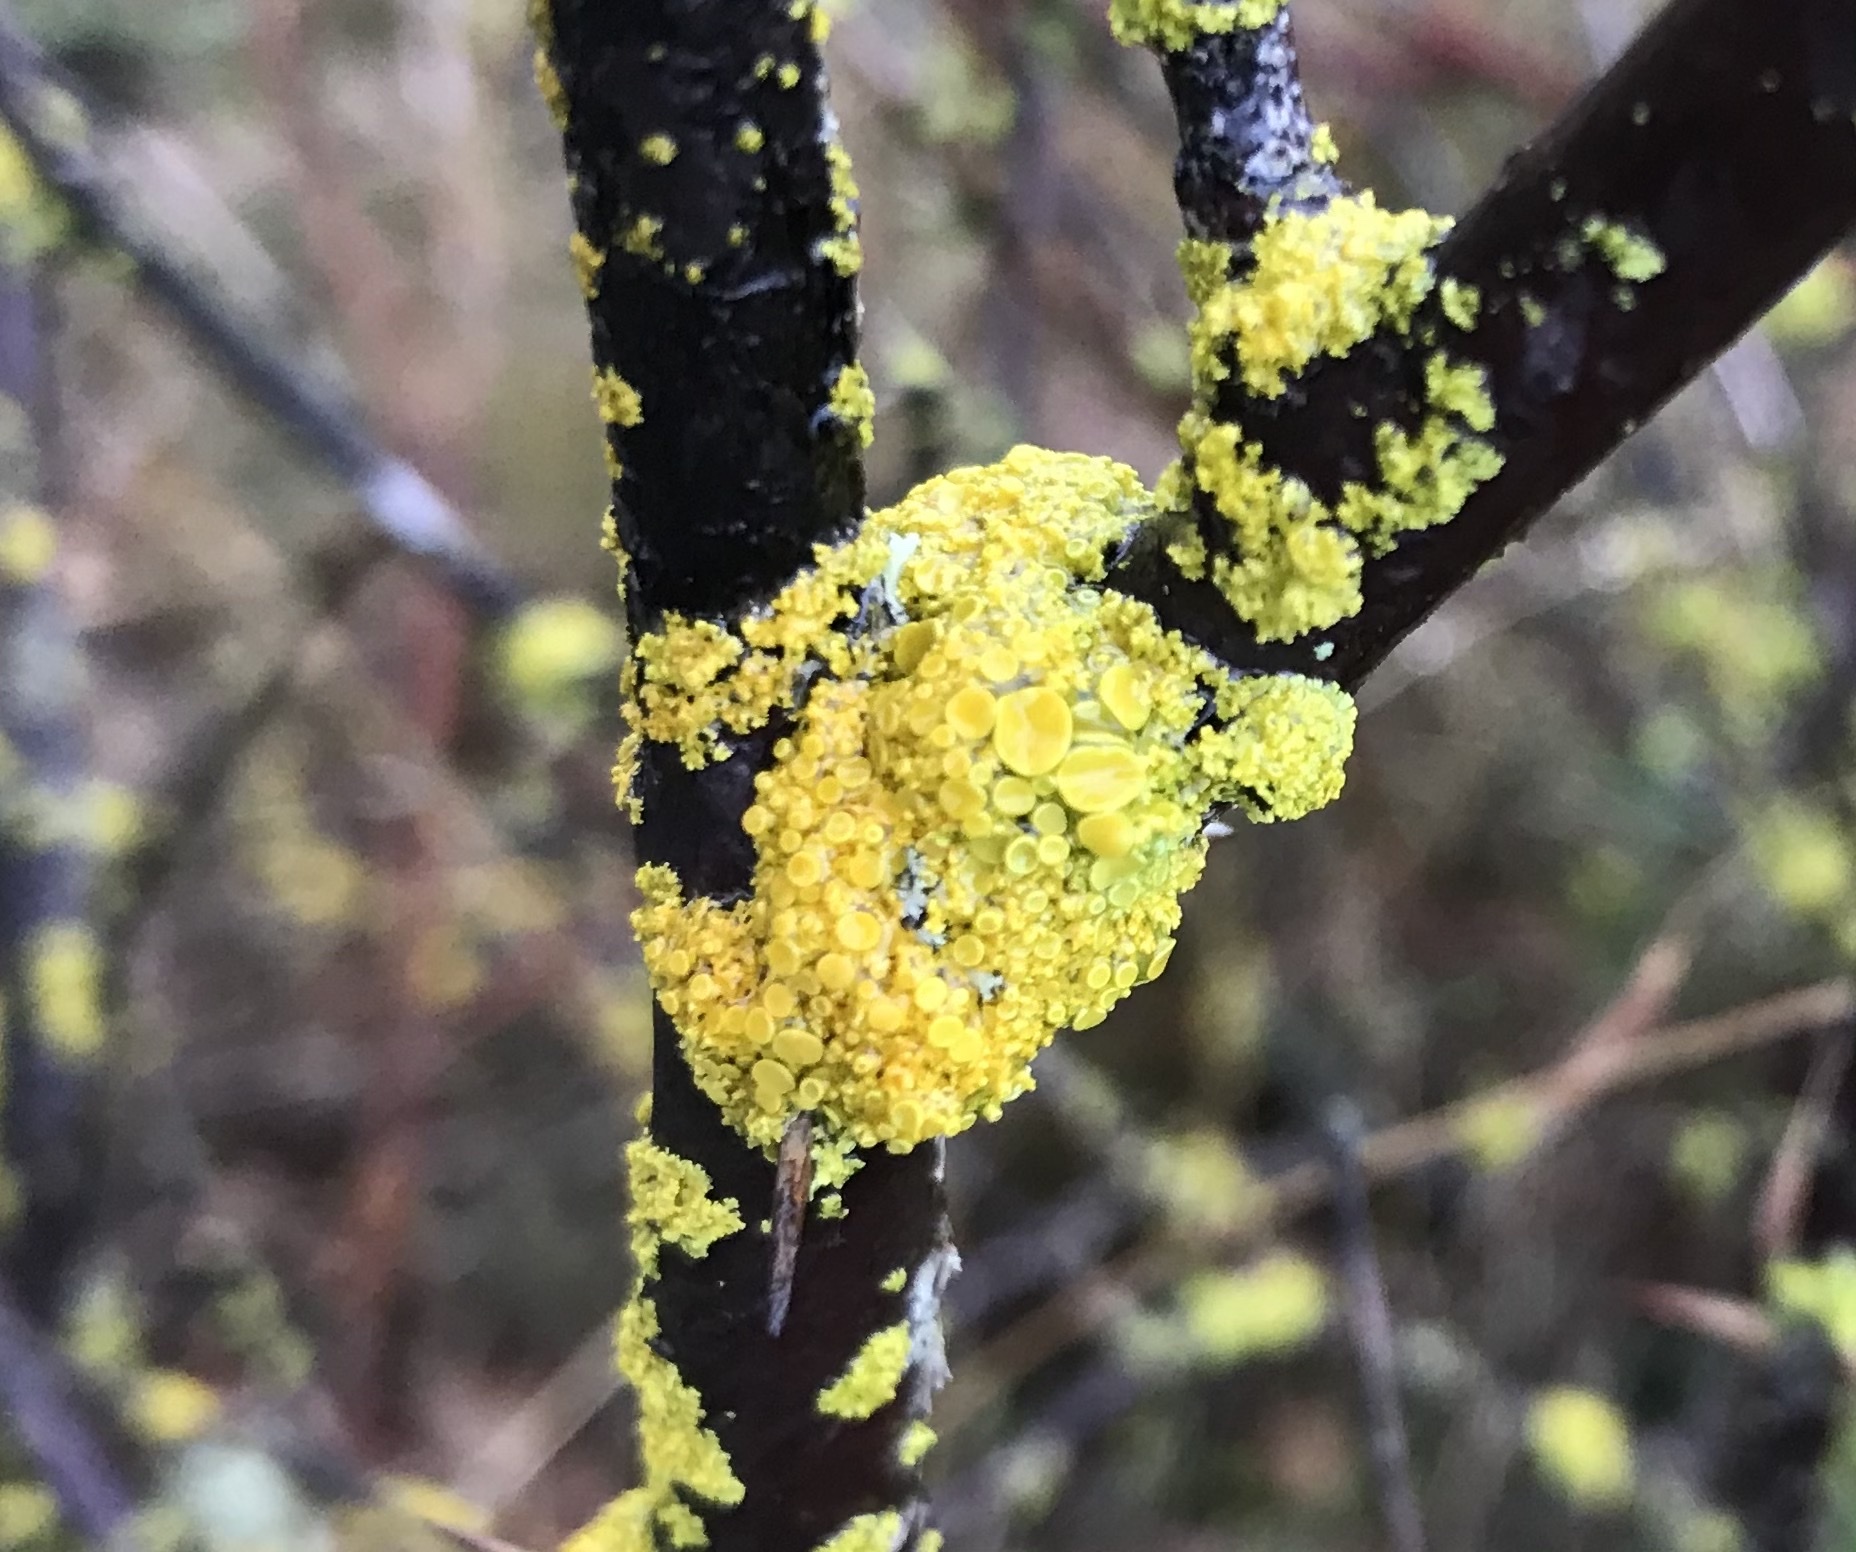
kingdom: Fungi
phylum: Ascomycota
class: Lecanoromycetes
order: Teloschistales
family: Teloschistaceae
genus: Polycauliona
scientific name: Polycauliona polycarpa
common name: Pin-cushion sunburst lichen
